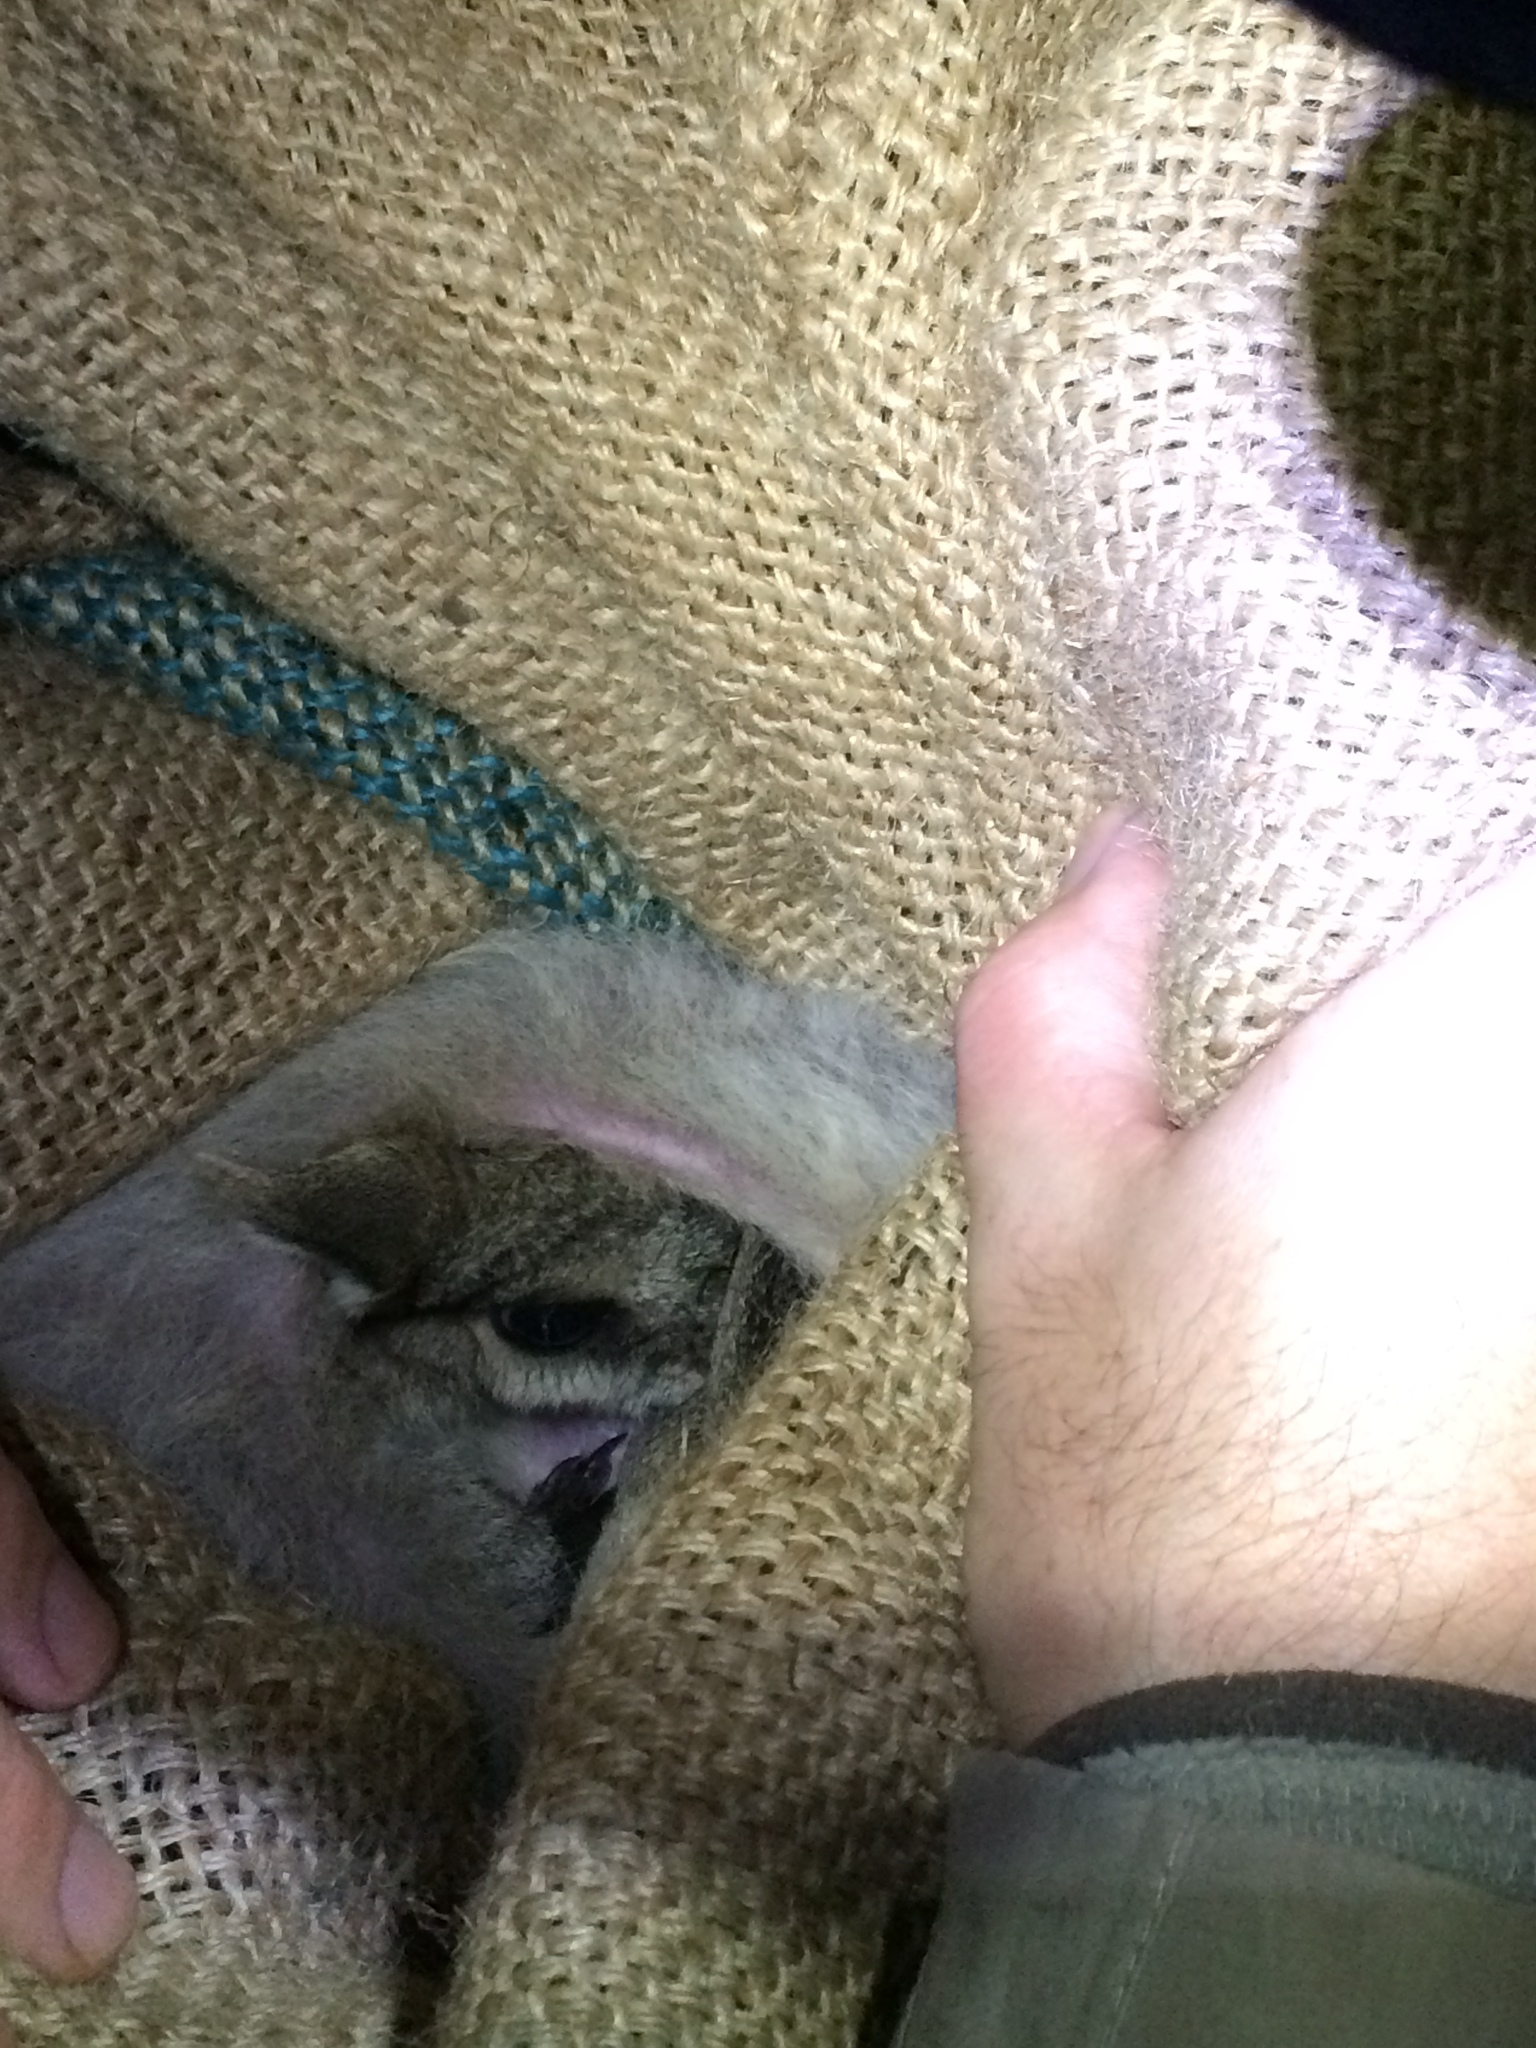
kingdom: Animalia
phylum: Chordata
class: Mammalia
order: Diprotodontia
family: Macropodidae
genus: Onychogalea
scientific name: Onychogalea fraenata
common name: Bridled nail-tail wallaby
